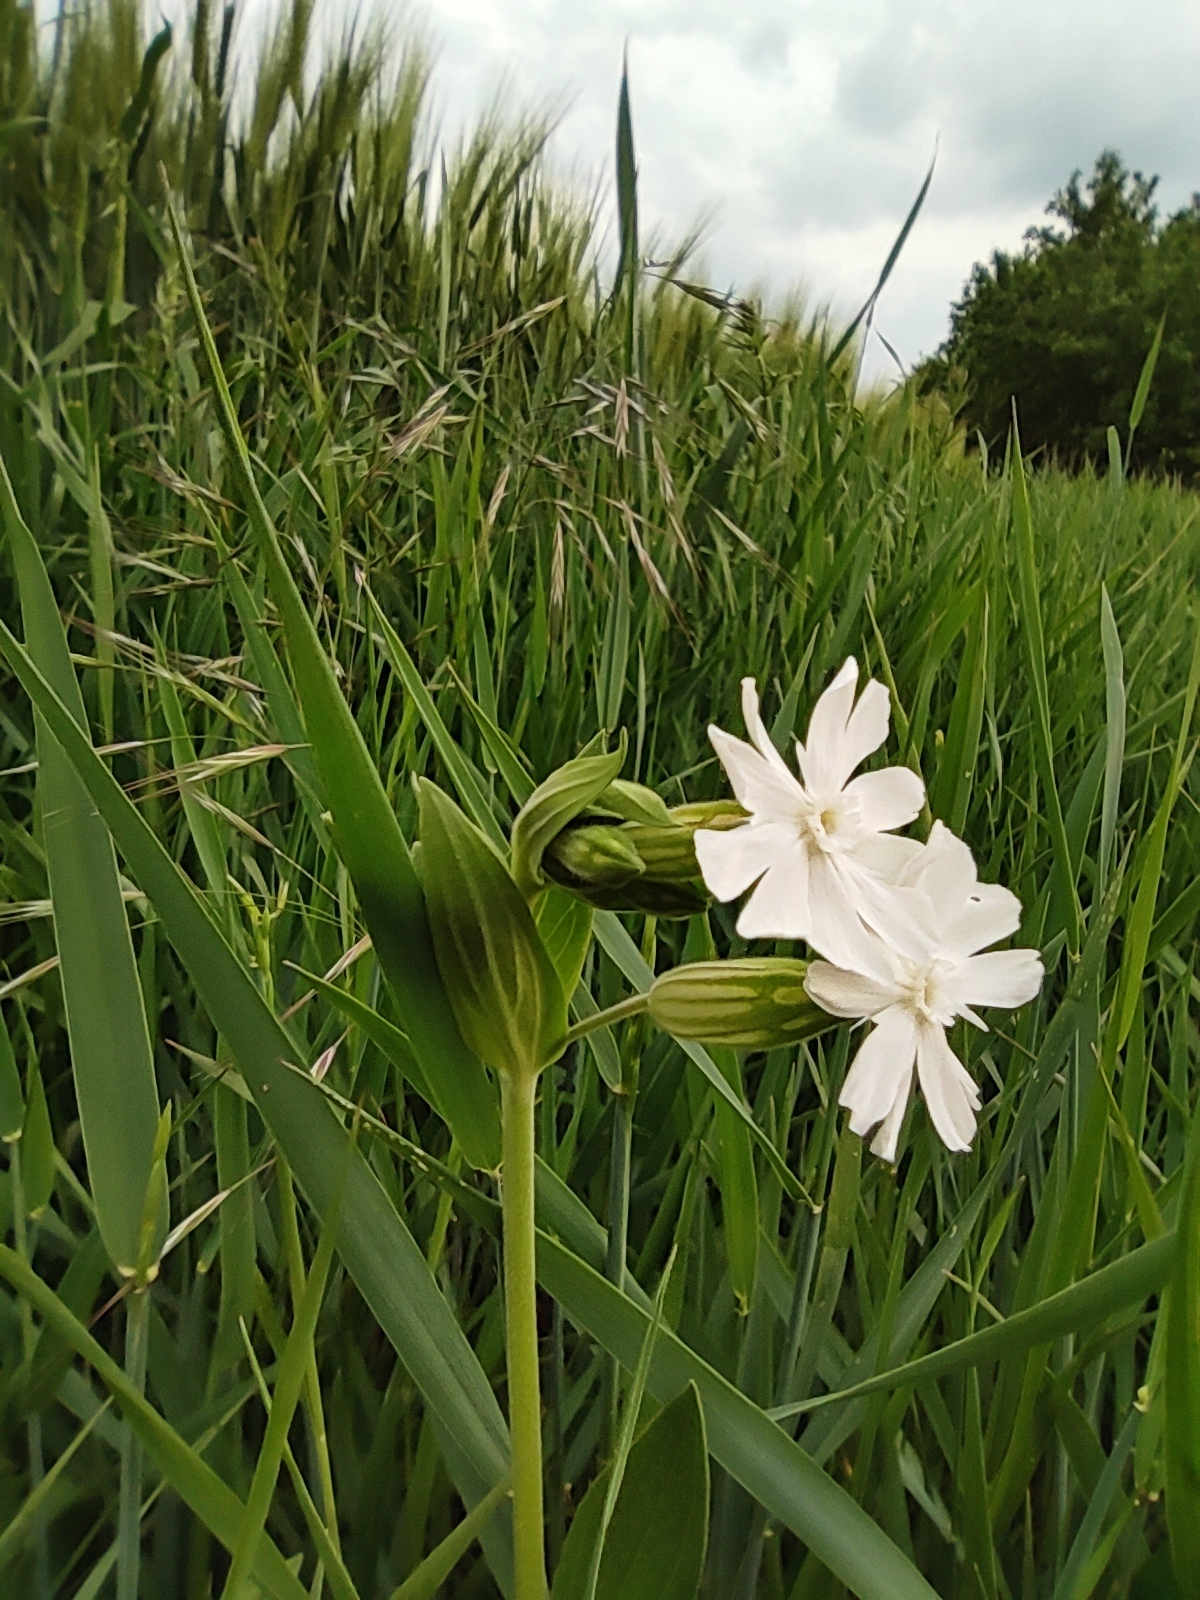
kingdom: Plantae
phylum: Tracheophyta
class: Magnoliopsida
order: Caryophyllales
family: Caryophyllaceae
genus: Silene
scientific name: Silene latifolia
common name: White campion
